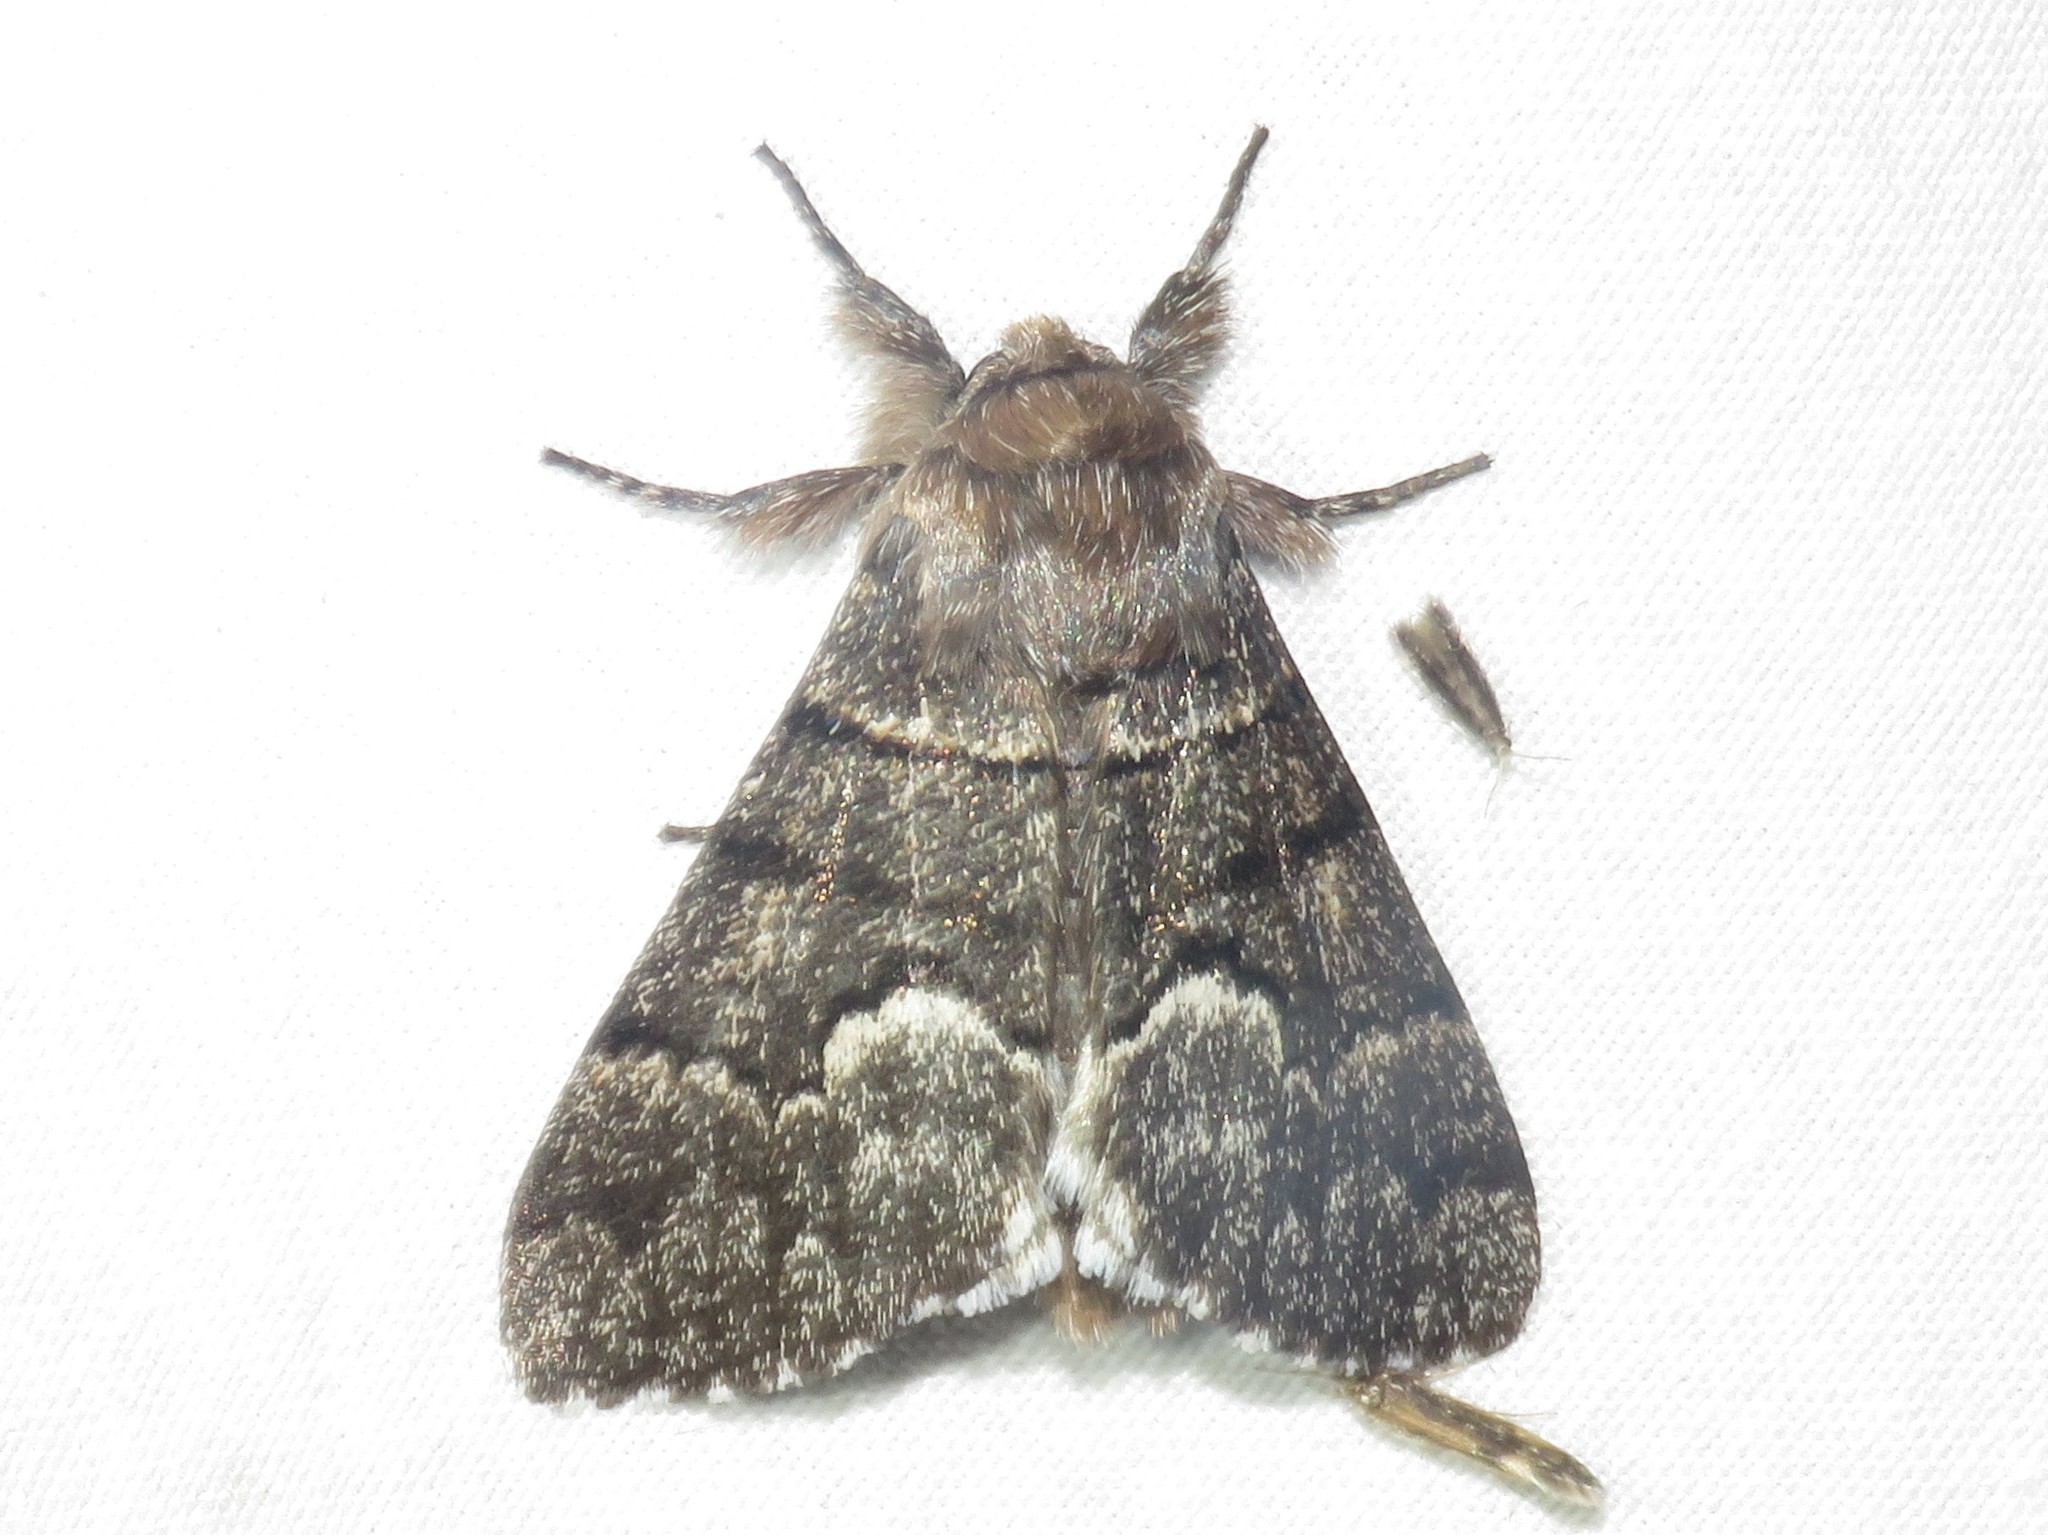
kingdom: Animalia
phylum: Arthropoda
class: Insecta
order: Lepidoptera
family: Noctuidae
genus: Panthea
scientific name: Panthea furcilla
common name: Eastern panthea moth
